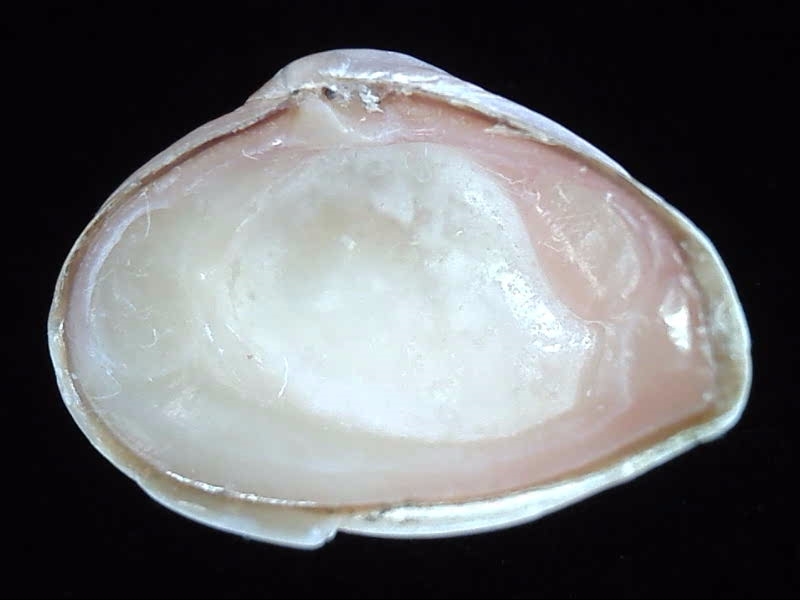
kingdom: Animalia
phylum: Mollusca
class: Bivalvia
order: Myida
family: Corbulidae
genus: Corbula
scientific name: Corbula zelandica
